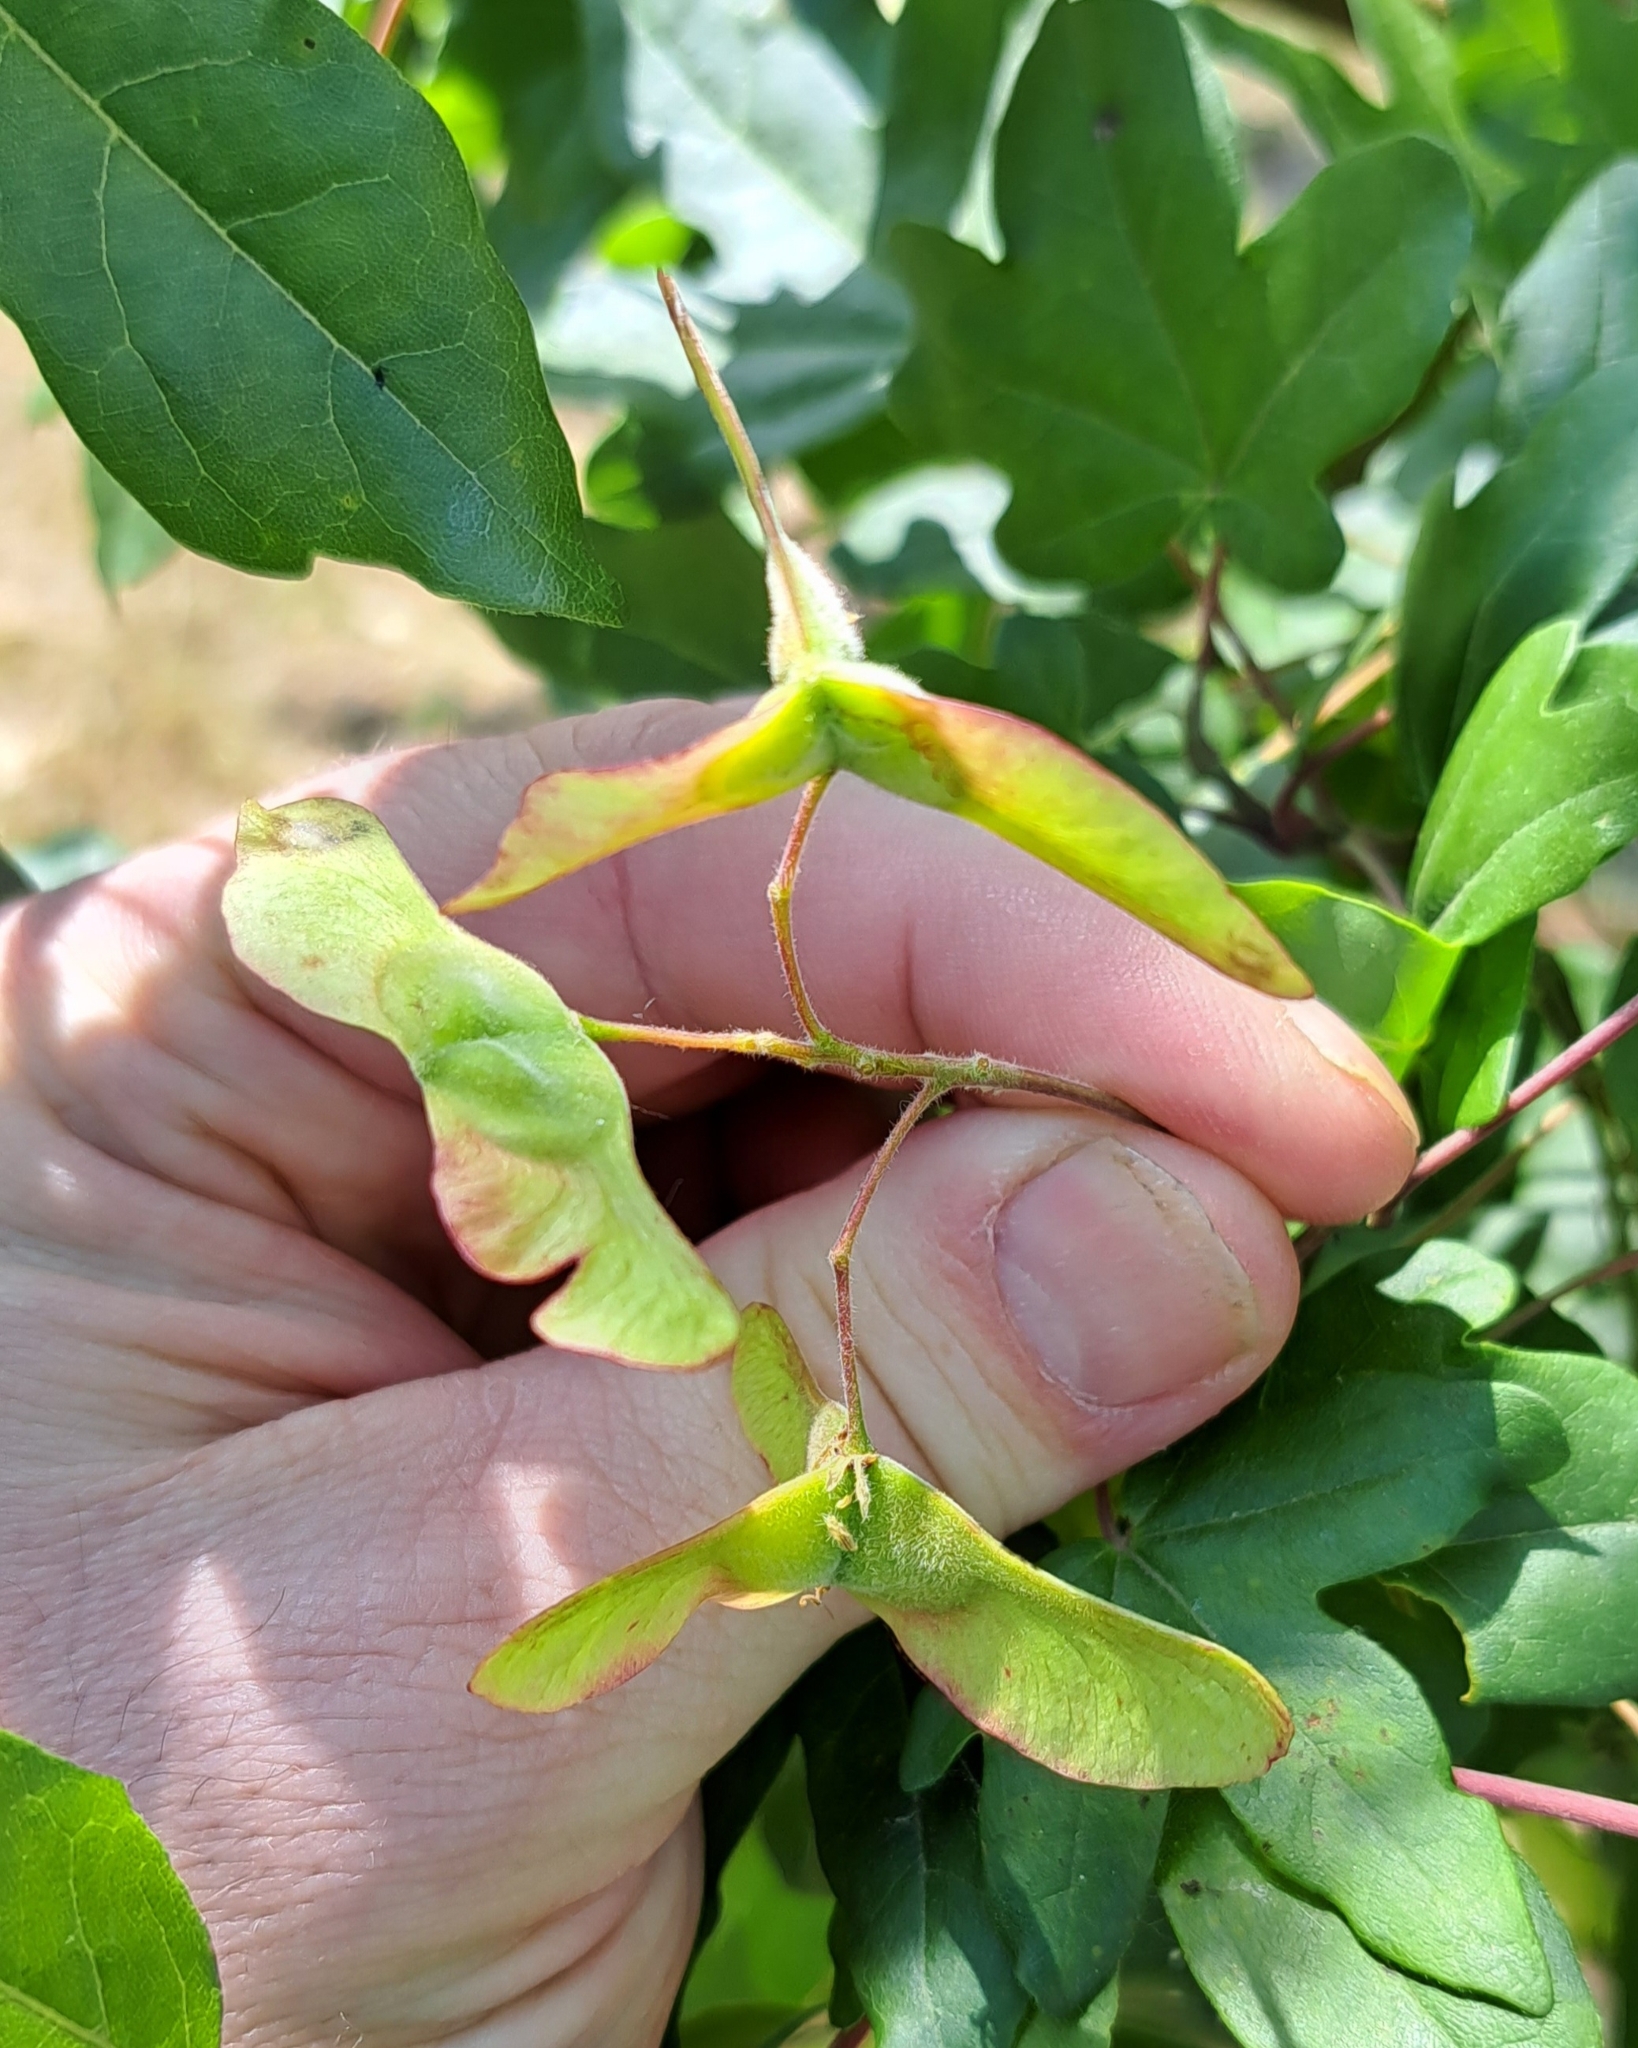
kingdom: Plantae
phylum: Tracheophyta
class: Magnoliopsida
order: Sapindales
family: Sapindaceae
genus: Acer
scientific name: Acer campestre
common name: Field maple
